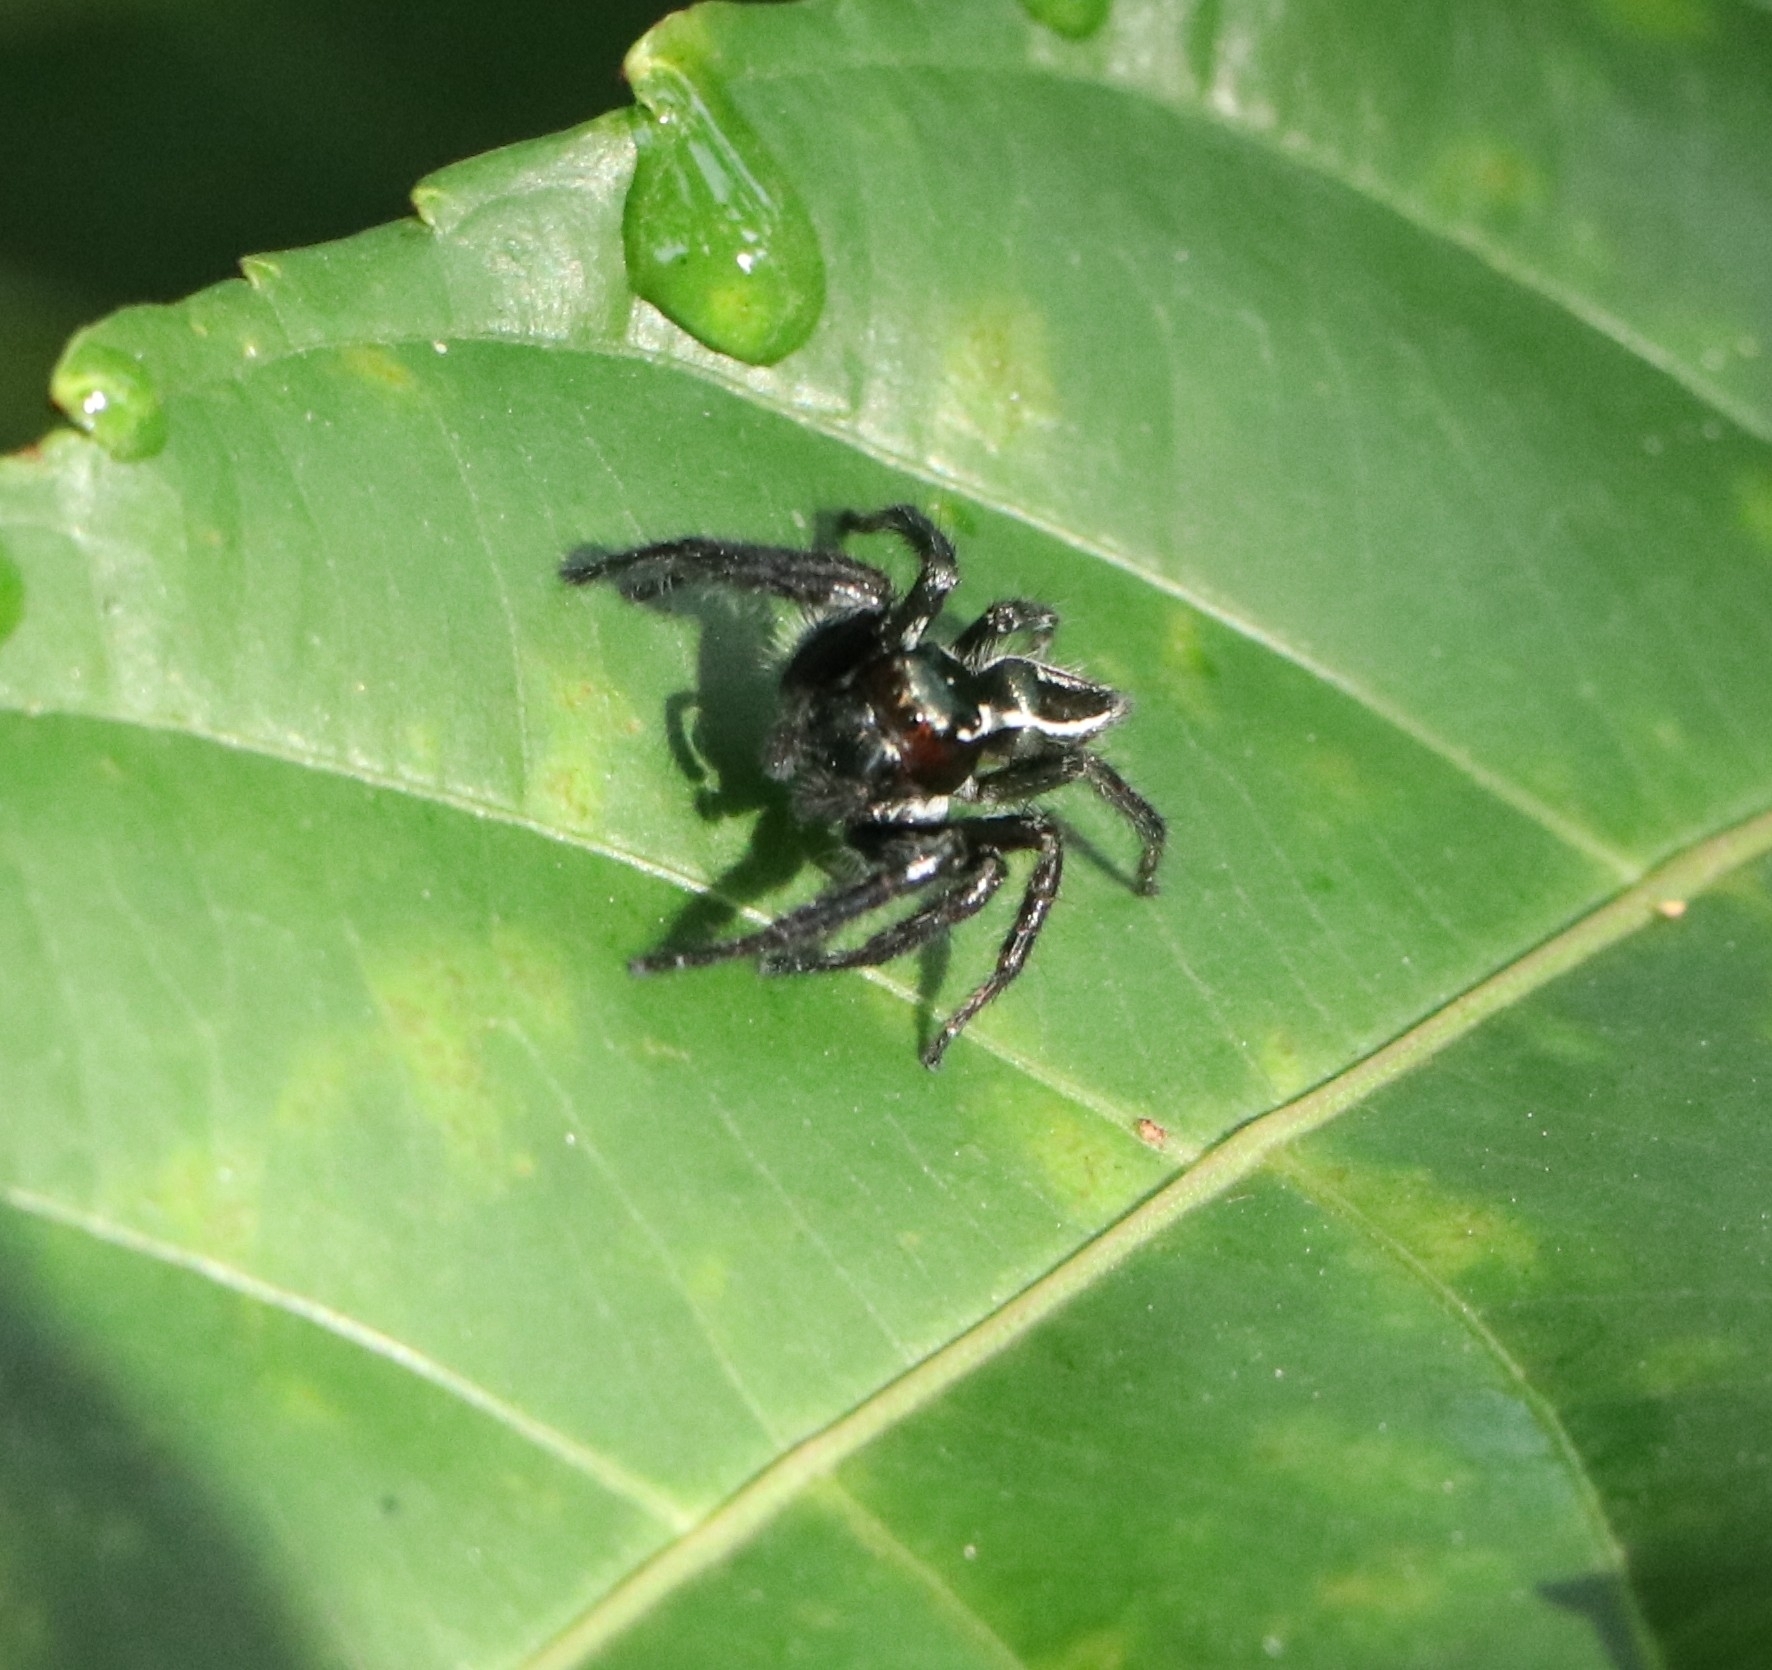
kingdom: Animalia
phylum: Arthropoda
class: Arachnida
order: Araneae
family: Salticidae
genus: Carrhotus
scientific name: Carrhotus viduus
